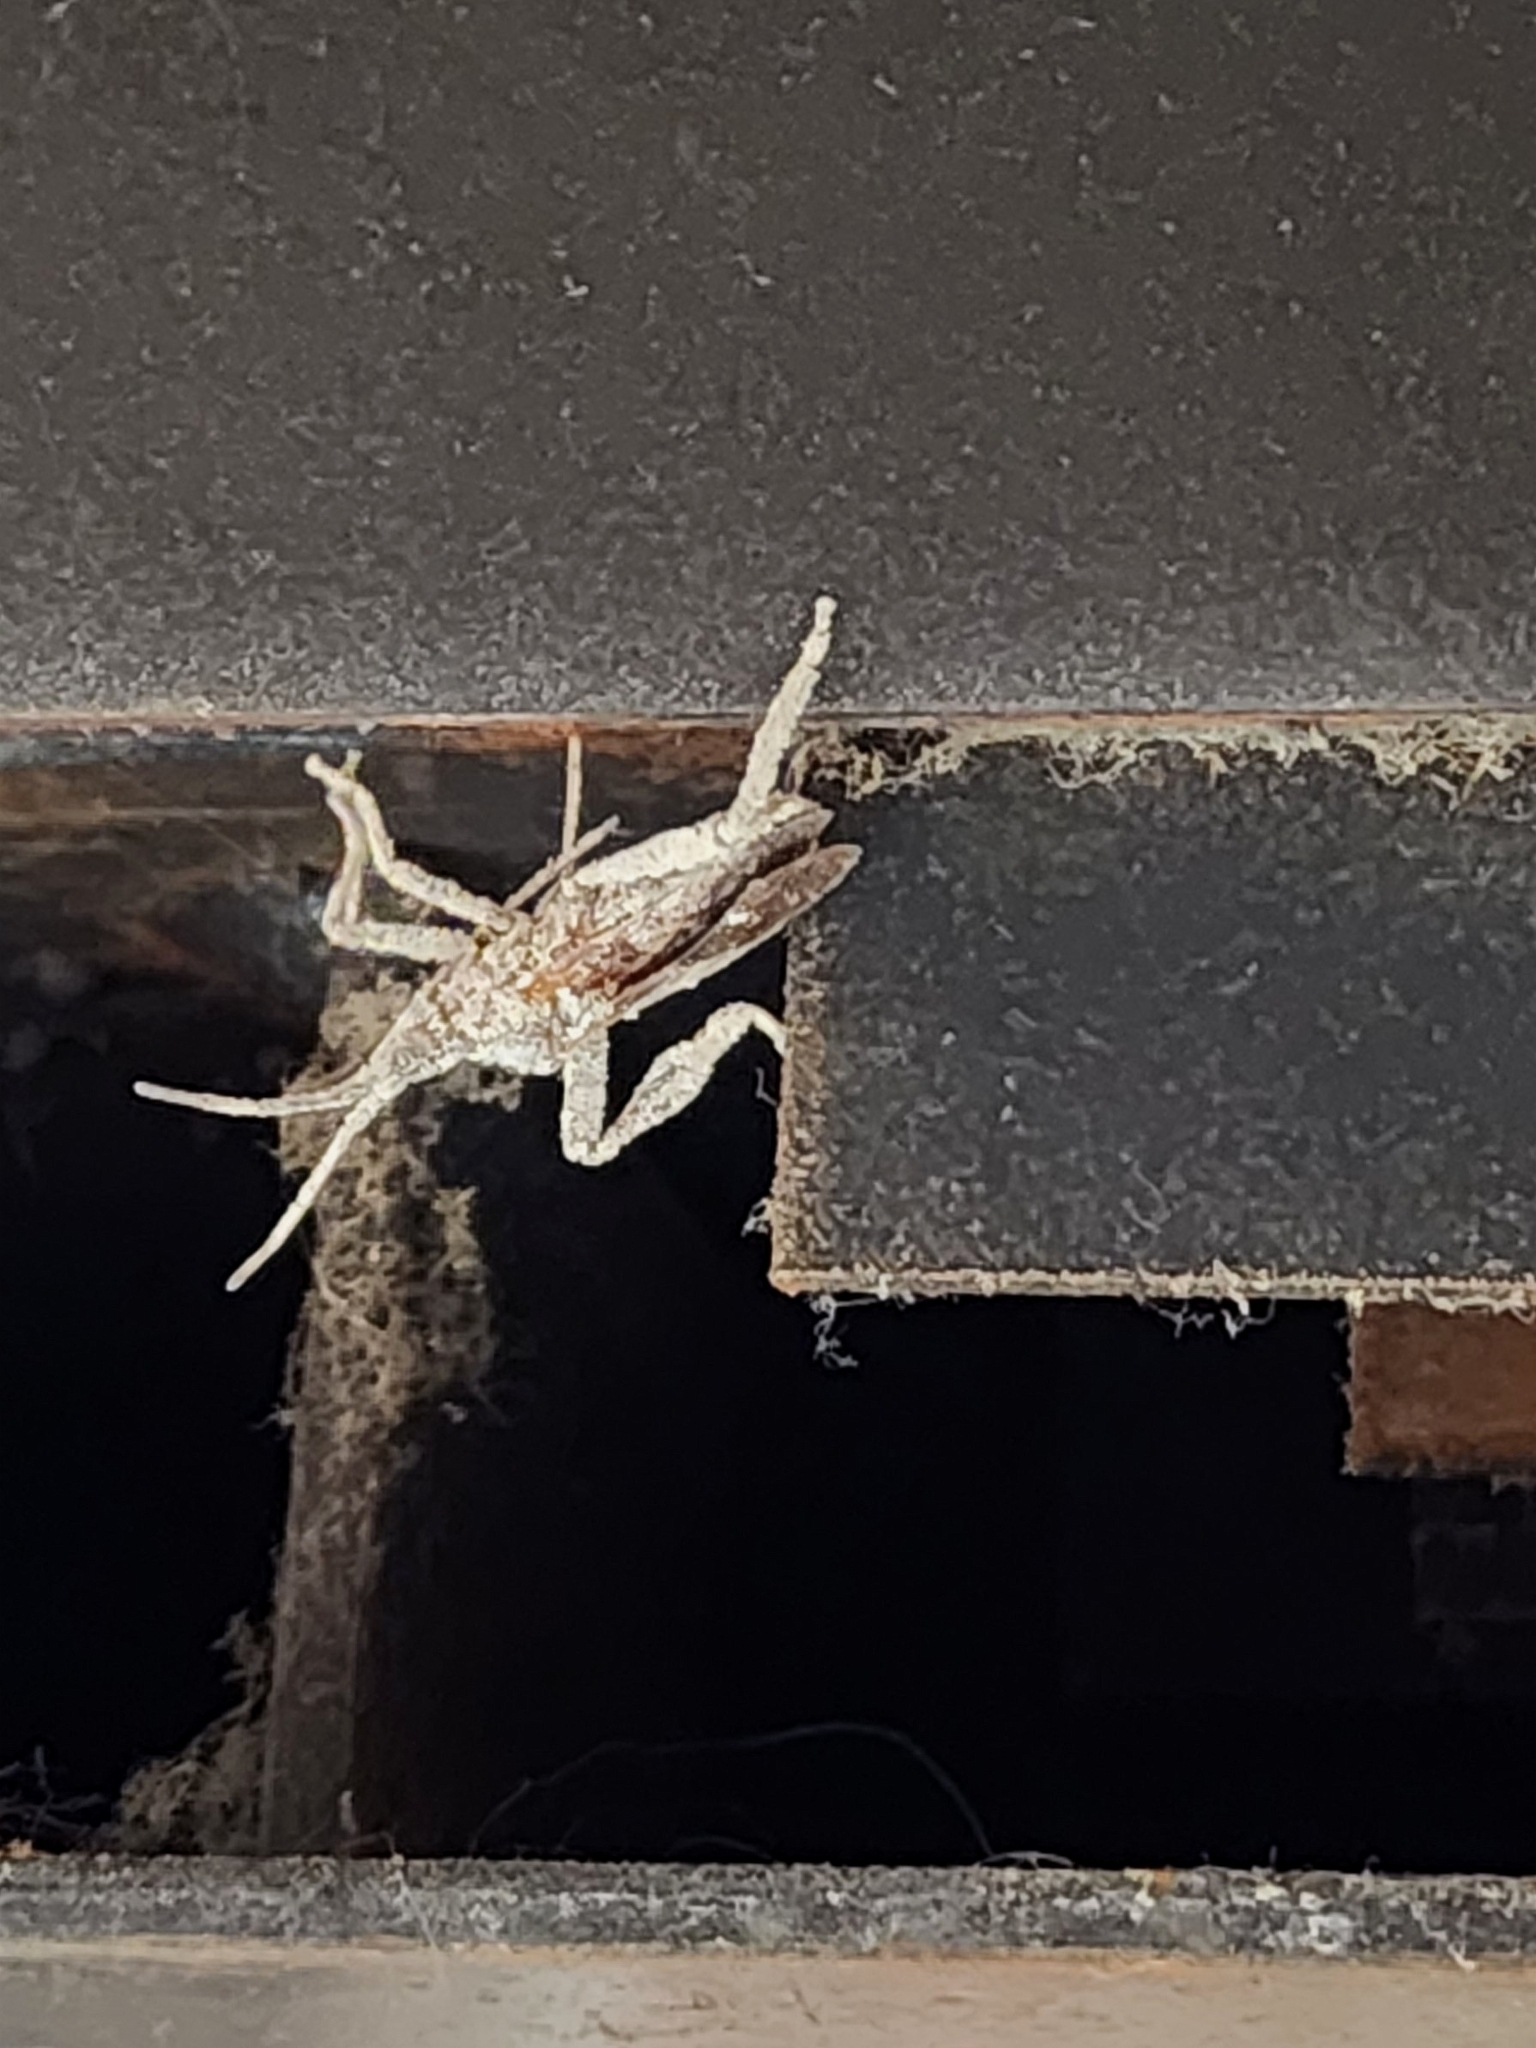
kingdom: Animalia
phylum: Arthropoda
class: Insecta
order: Hemiptera
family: Coreidae
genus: Leptoglossus
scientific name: Leptoglossus occidentalis
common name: Western conifer-seed bug
